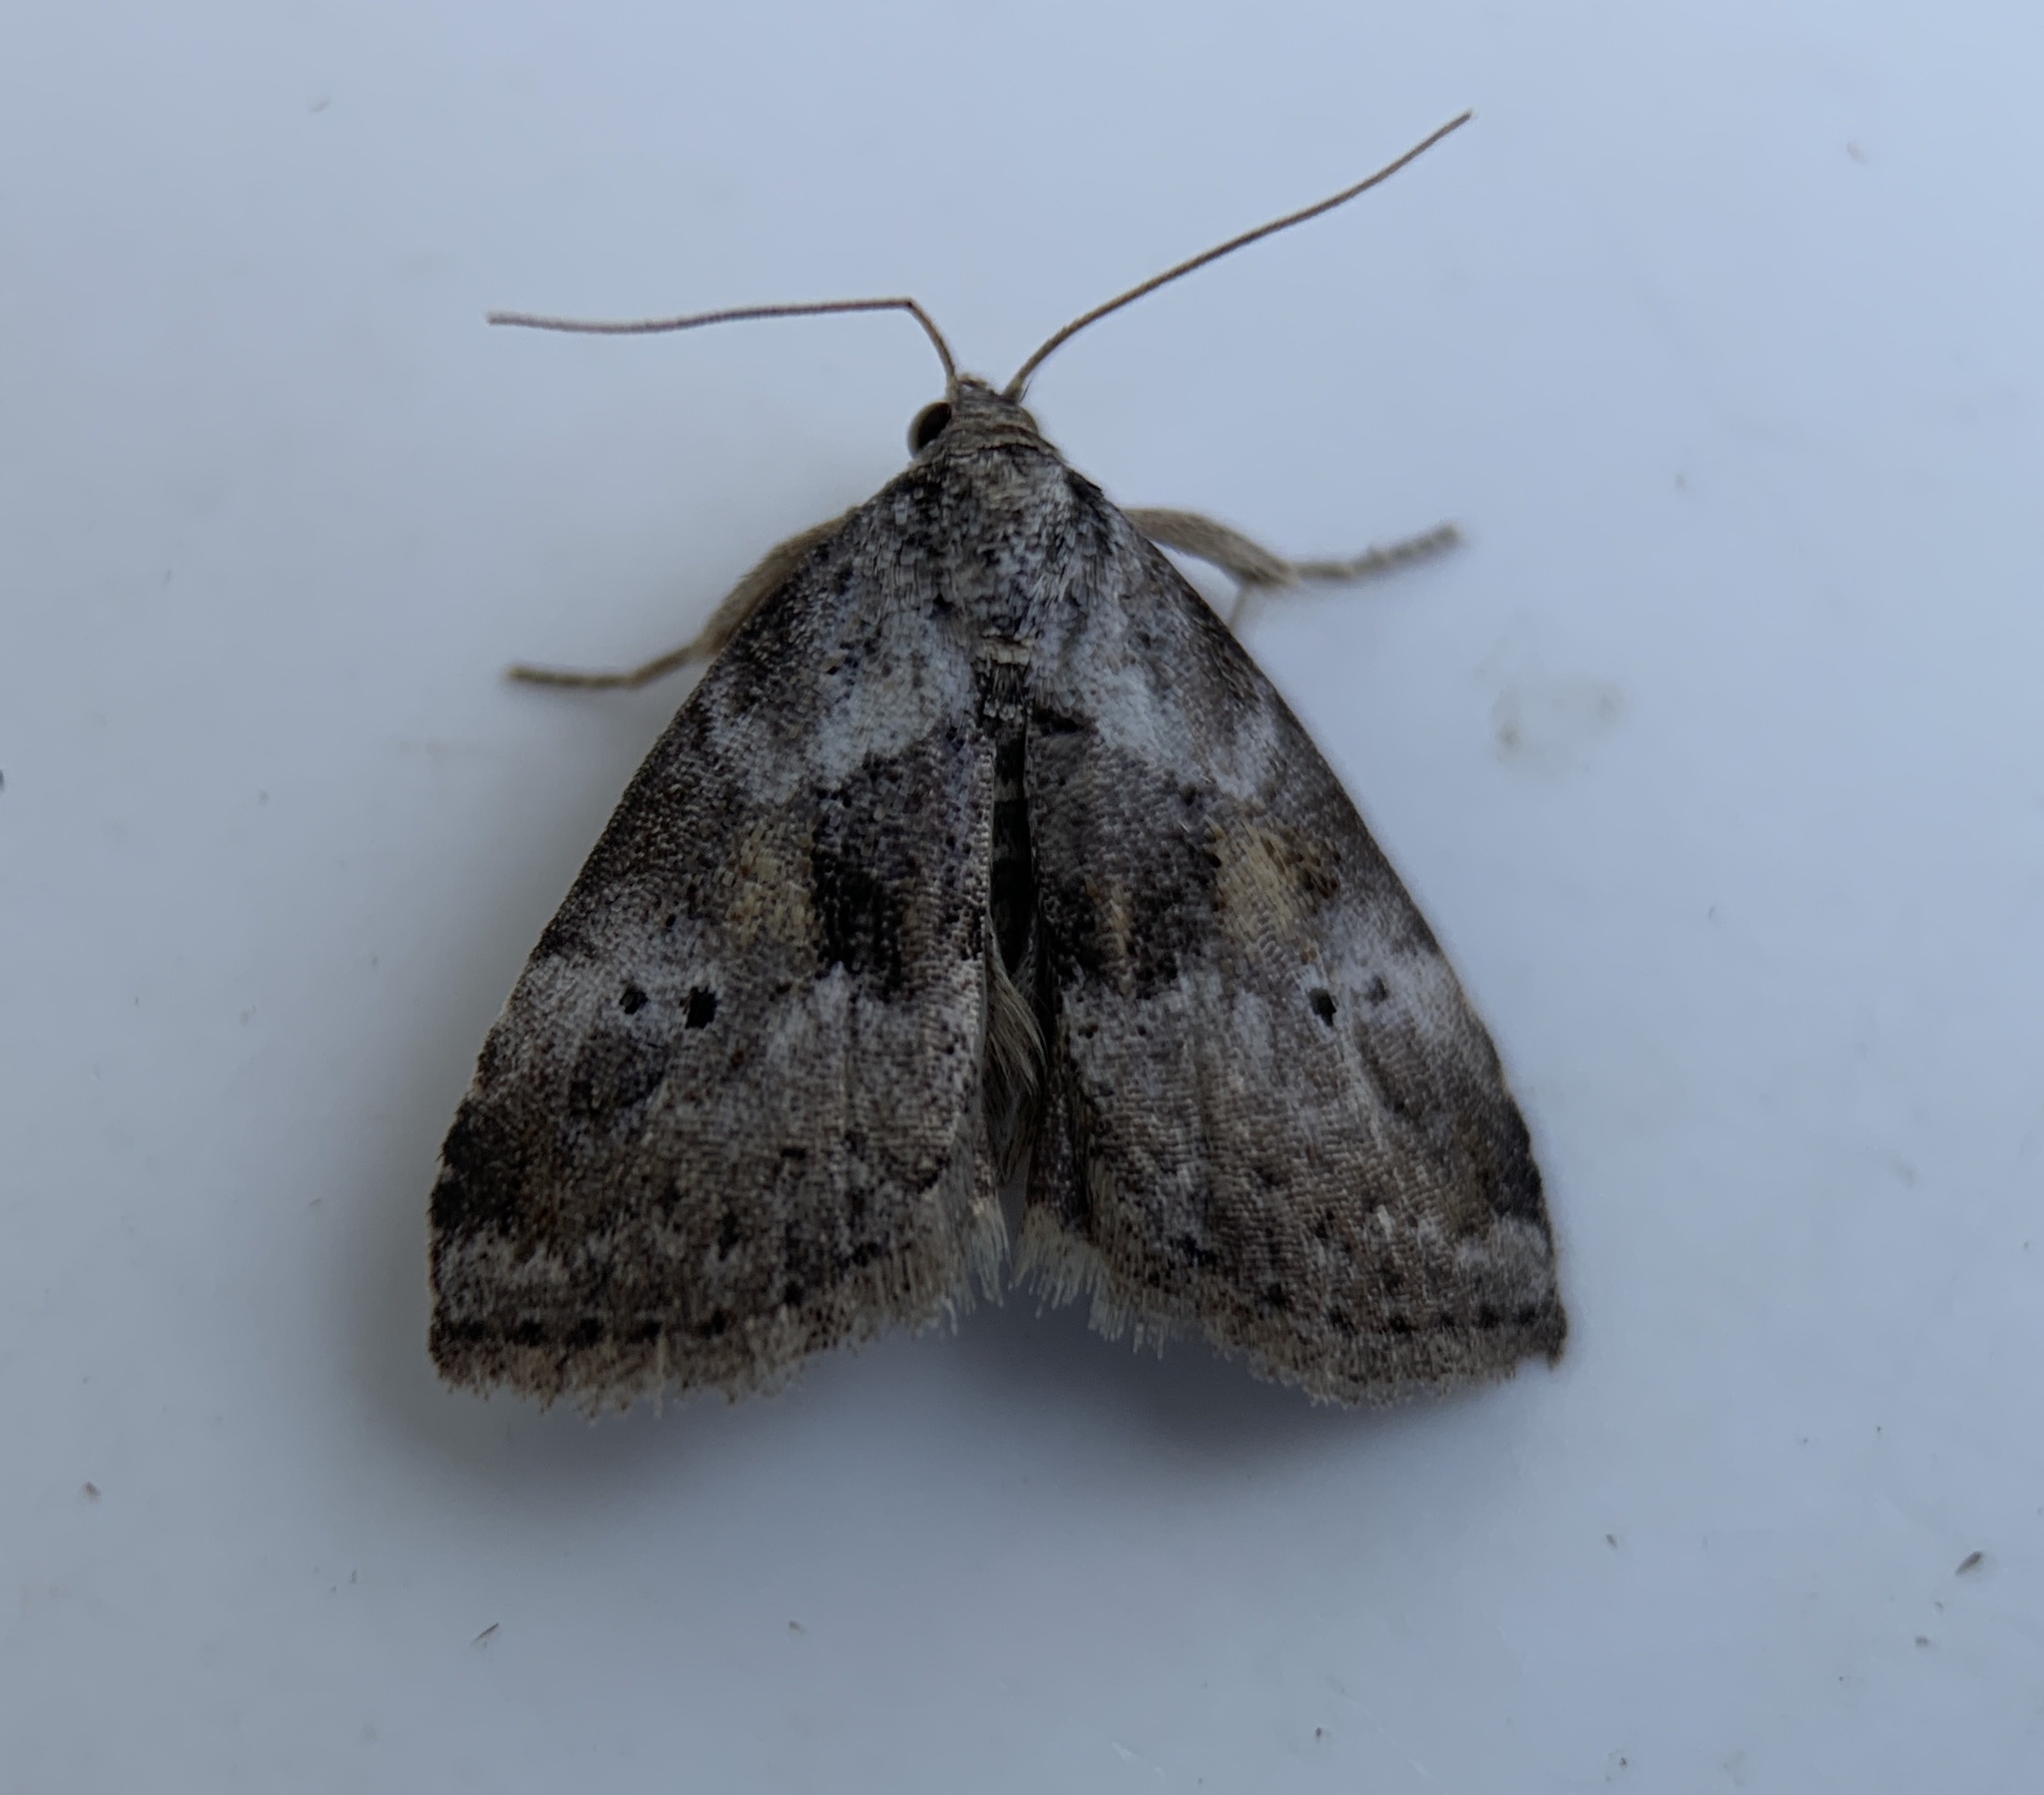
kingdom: Animalia
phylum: Arthropoda
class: Insecta
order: Lepidoptera
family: Erebidae
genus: Hyperstrotia
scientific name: Hyperstrotia secta
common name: Black-patched graylet
